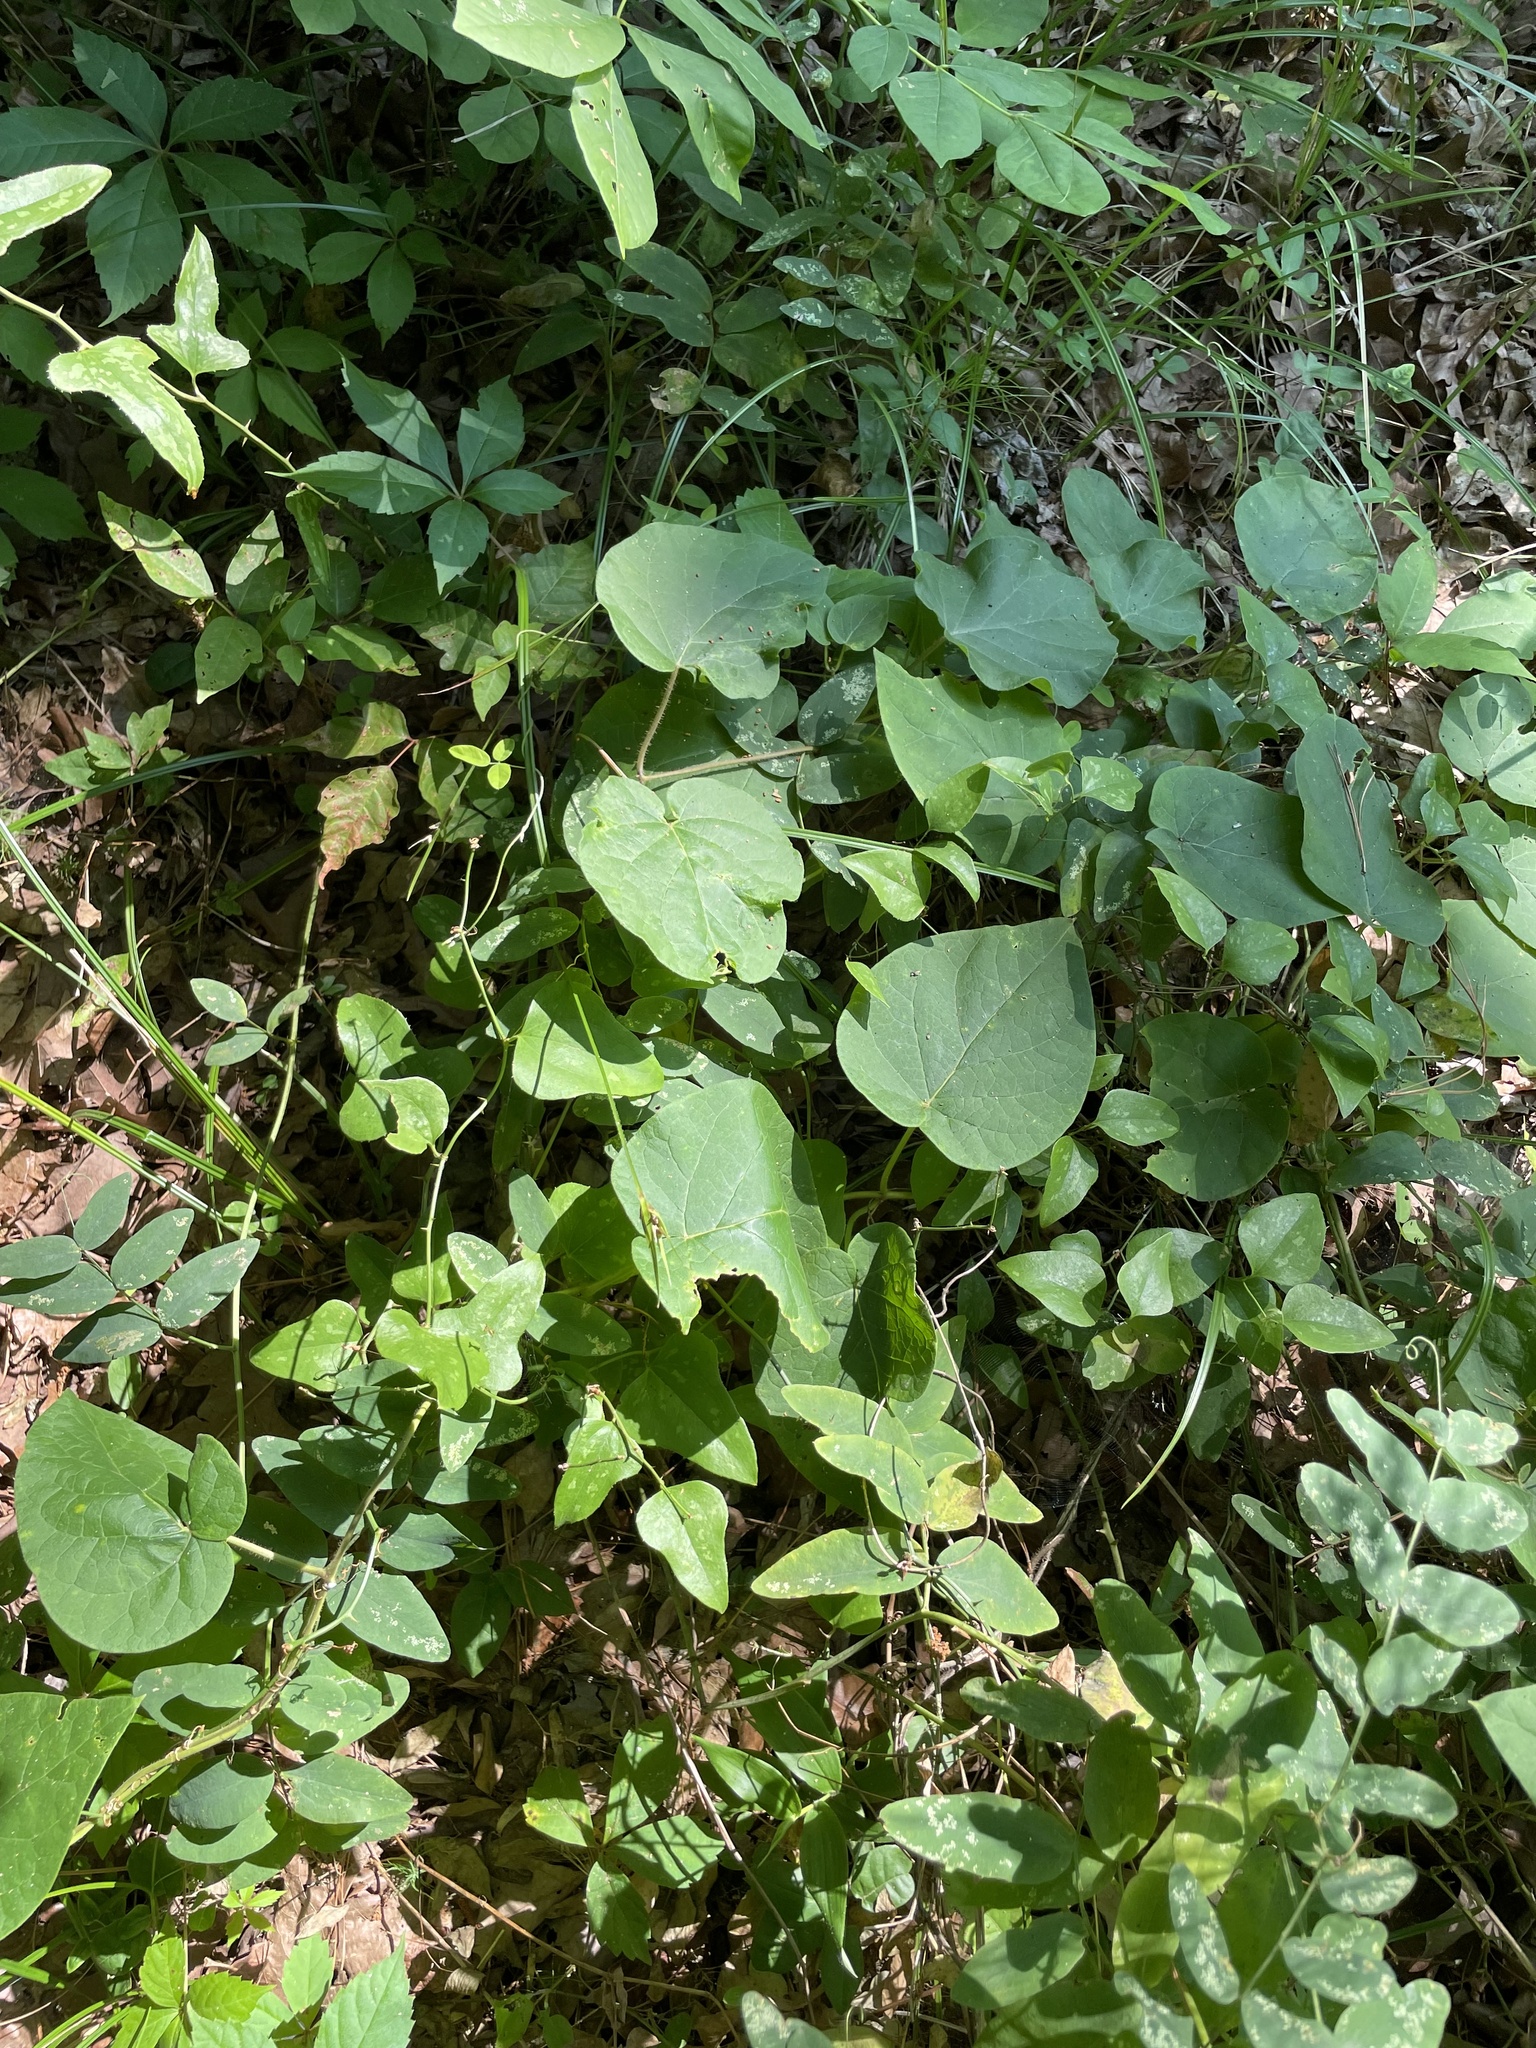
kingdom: Plantae
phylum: Tracheophyta
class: Magnoliopsida
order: Gentianales
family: Apocynaceae
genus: Matelea
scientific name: Matelea decipiens
